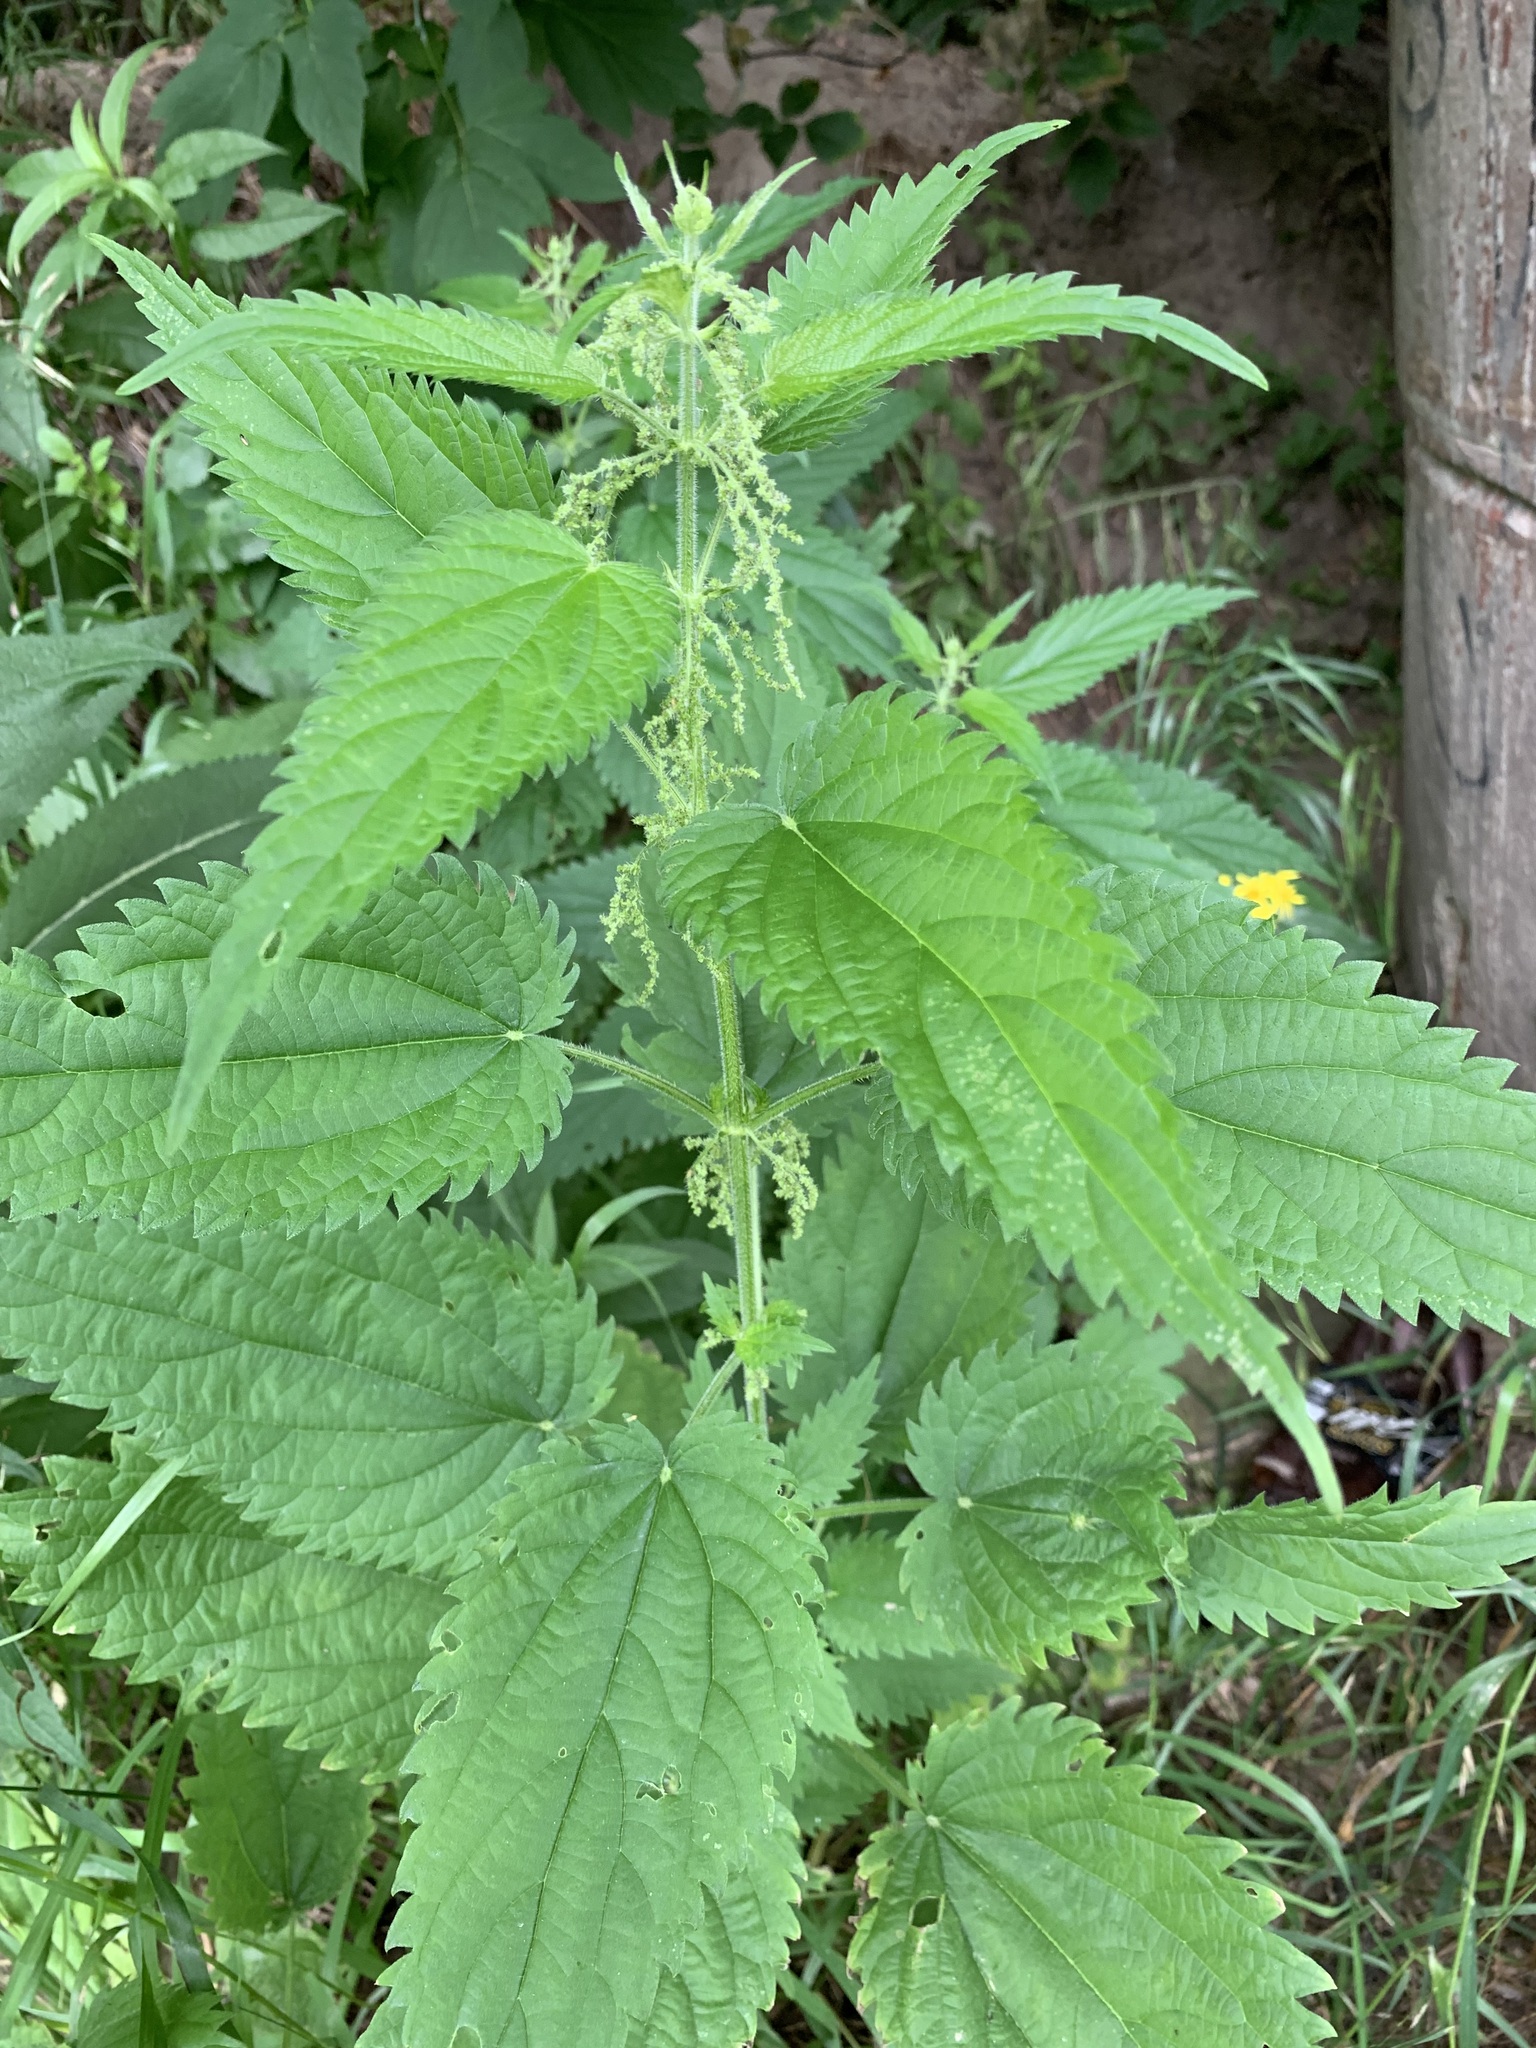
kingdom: Plantae
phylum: Tracheophyta
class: Magnoliopsida
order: Rosales
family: Urticaceae
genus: Urtica
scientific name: Urtica dioica
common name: Common nettle
